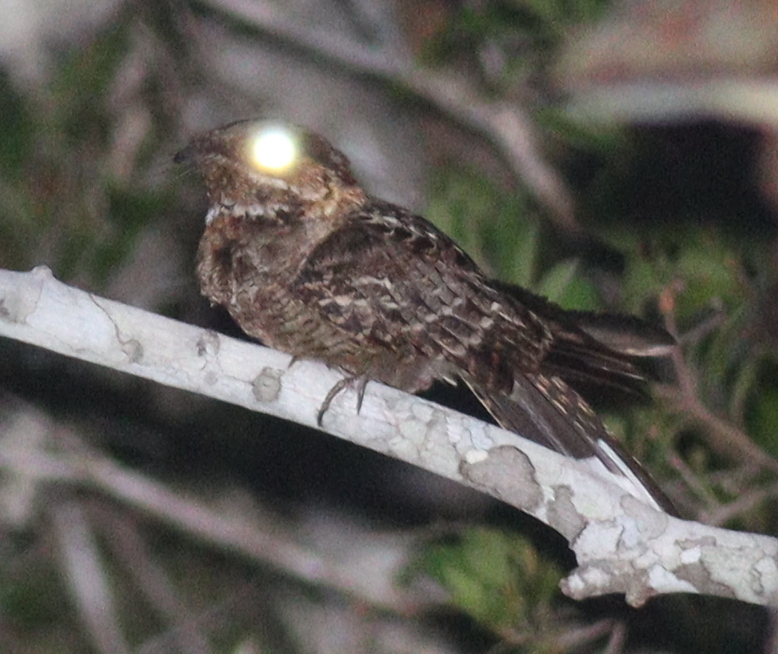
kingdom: Animalia
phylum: Chordata
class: Aves
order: Caprimulgiformes
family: Caprimulgidae
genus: Caprimulgus
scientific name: Caprimulgus pectoralis
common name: Fiery-necked nightjar
